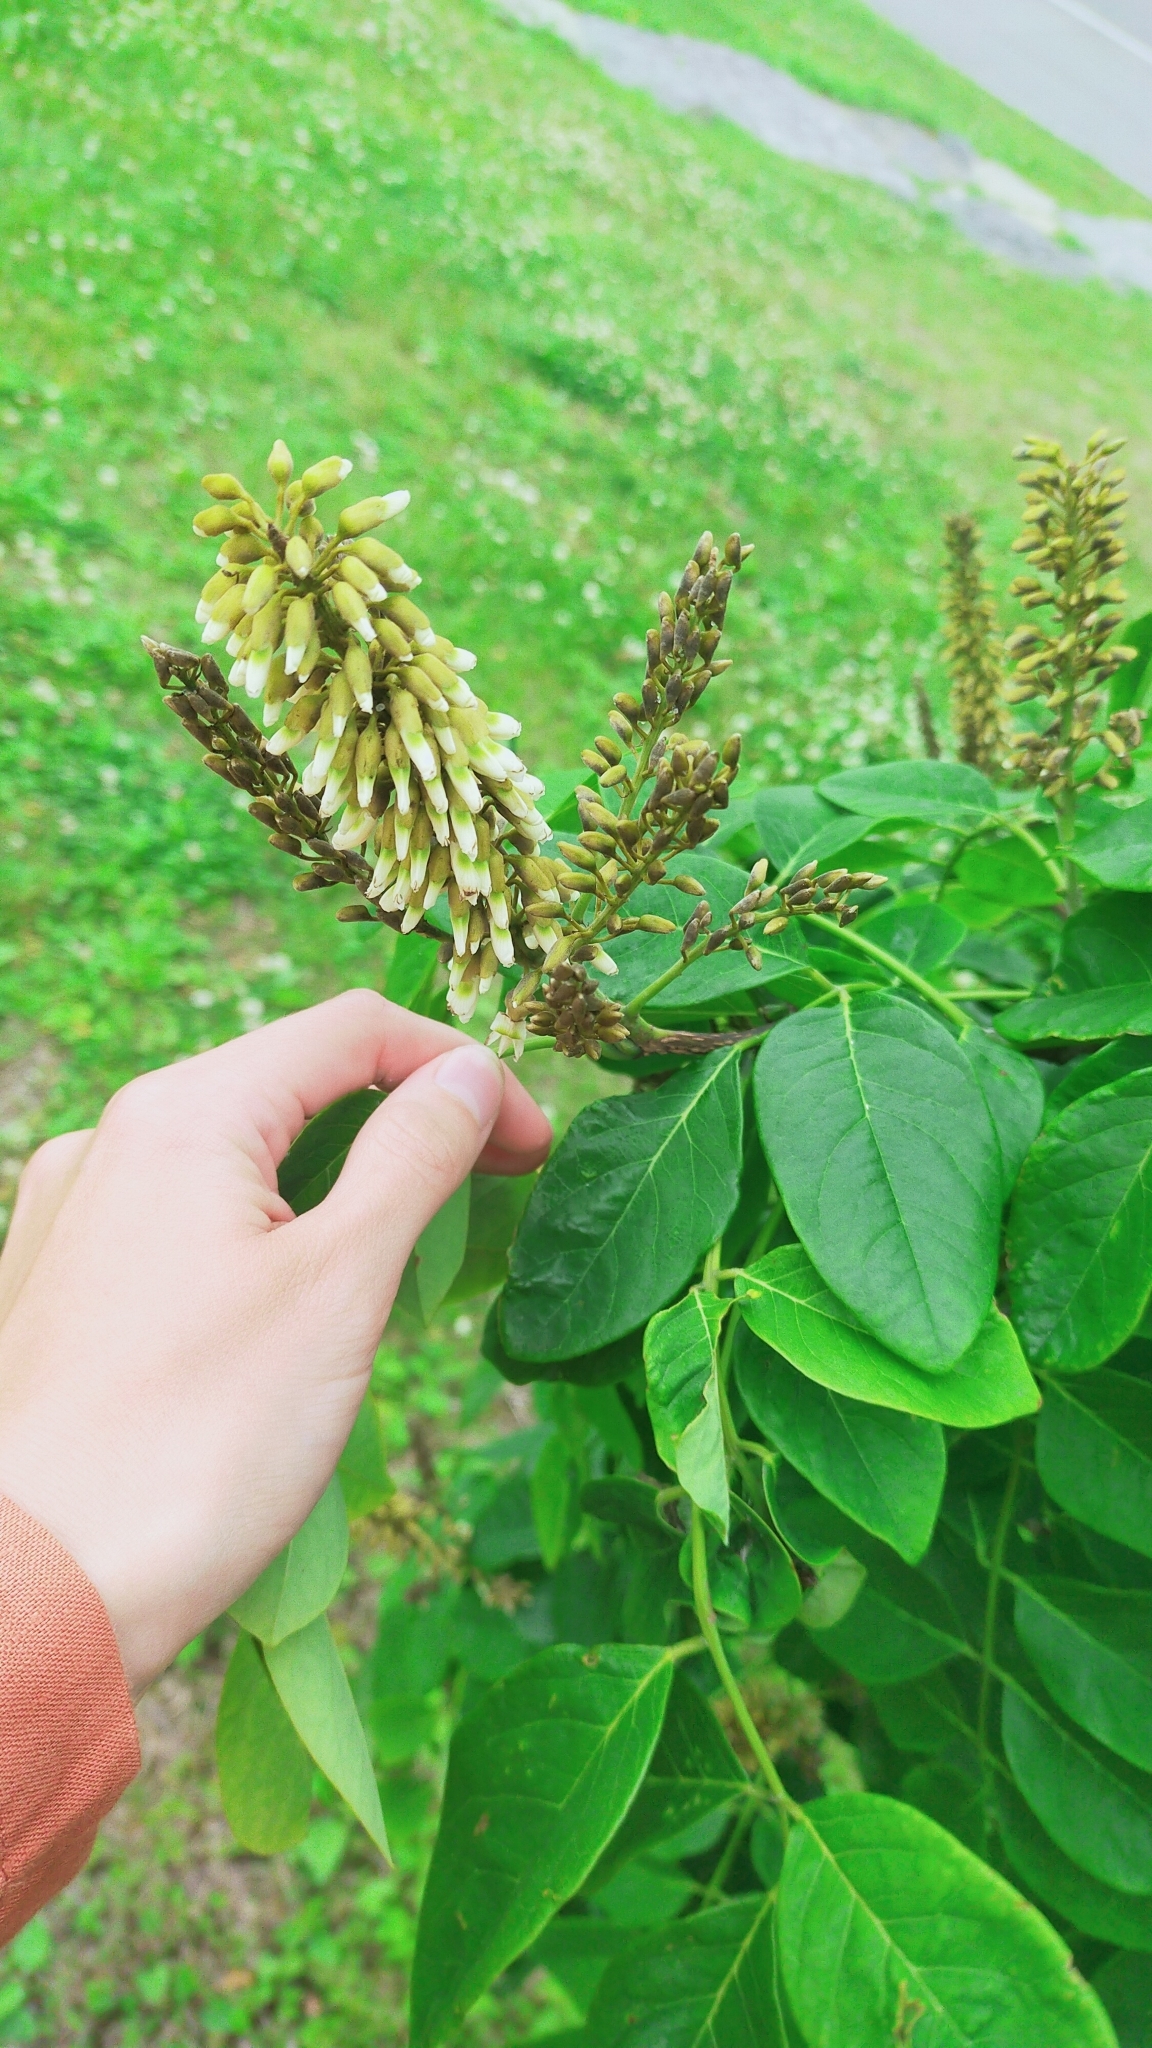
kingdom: Plantae
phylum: Tracheophyta
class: Magnoliopsida
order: Fabales
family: Fabaceae
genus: Maackia
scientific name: Maackia amurensis
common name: Amur maackia
